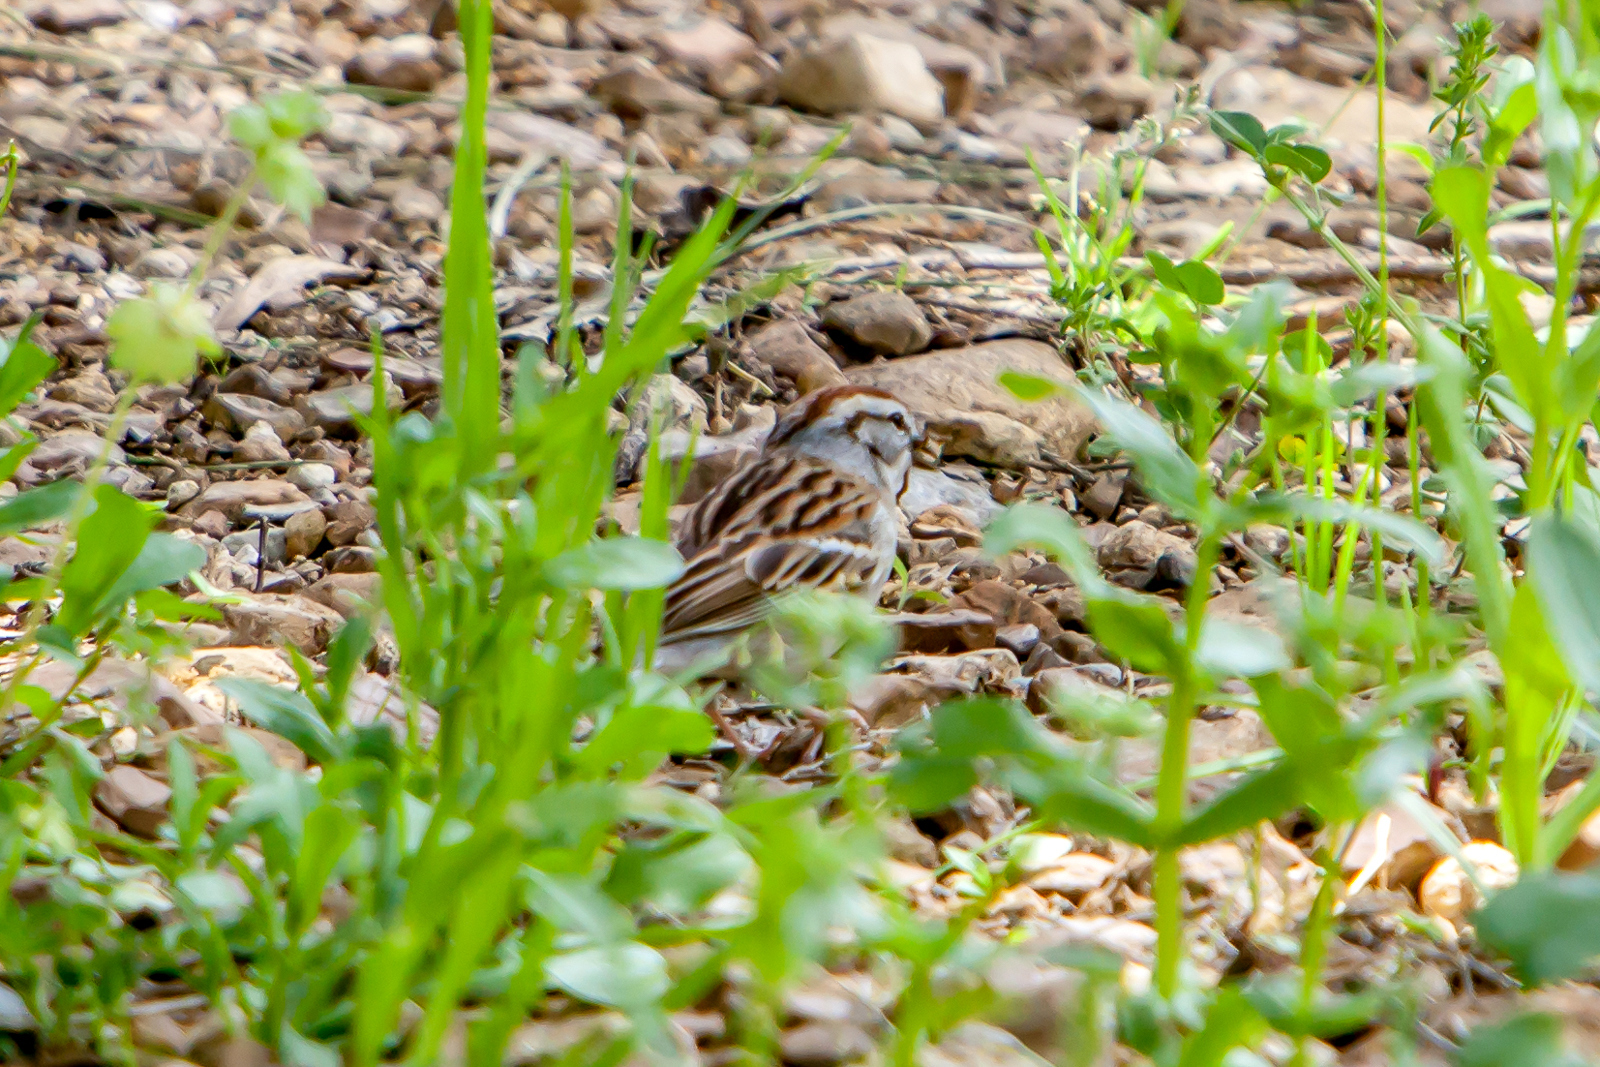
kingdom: Animalia
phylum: Chordata
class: Aves
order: Passeriformes
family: Passerellidae
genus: Spizella
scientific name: Spizella passerina
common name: Chipping sparrow
